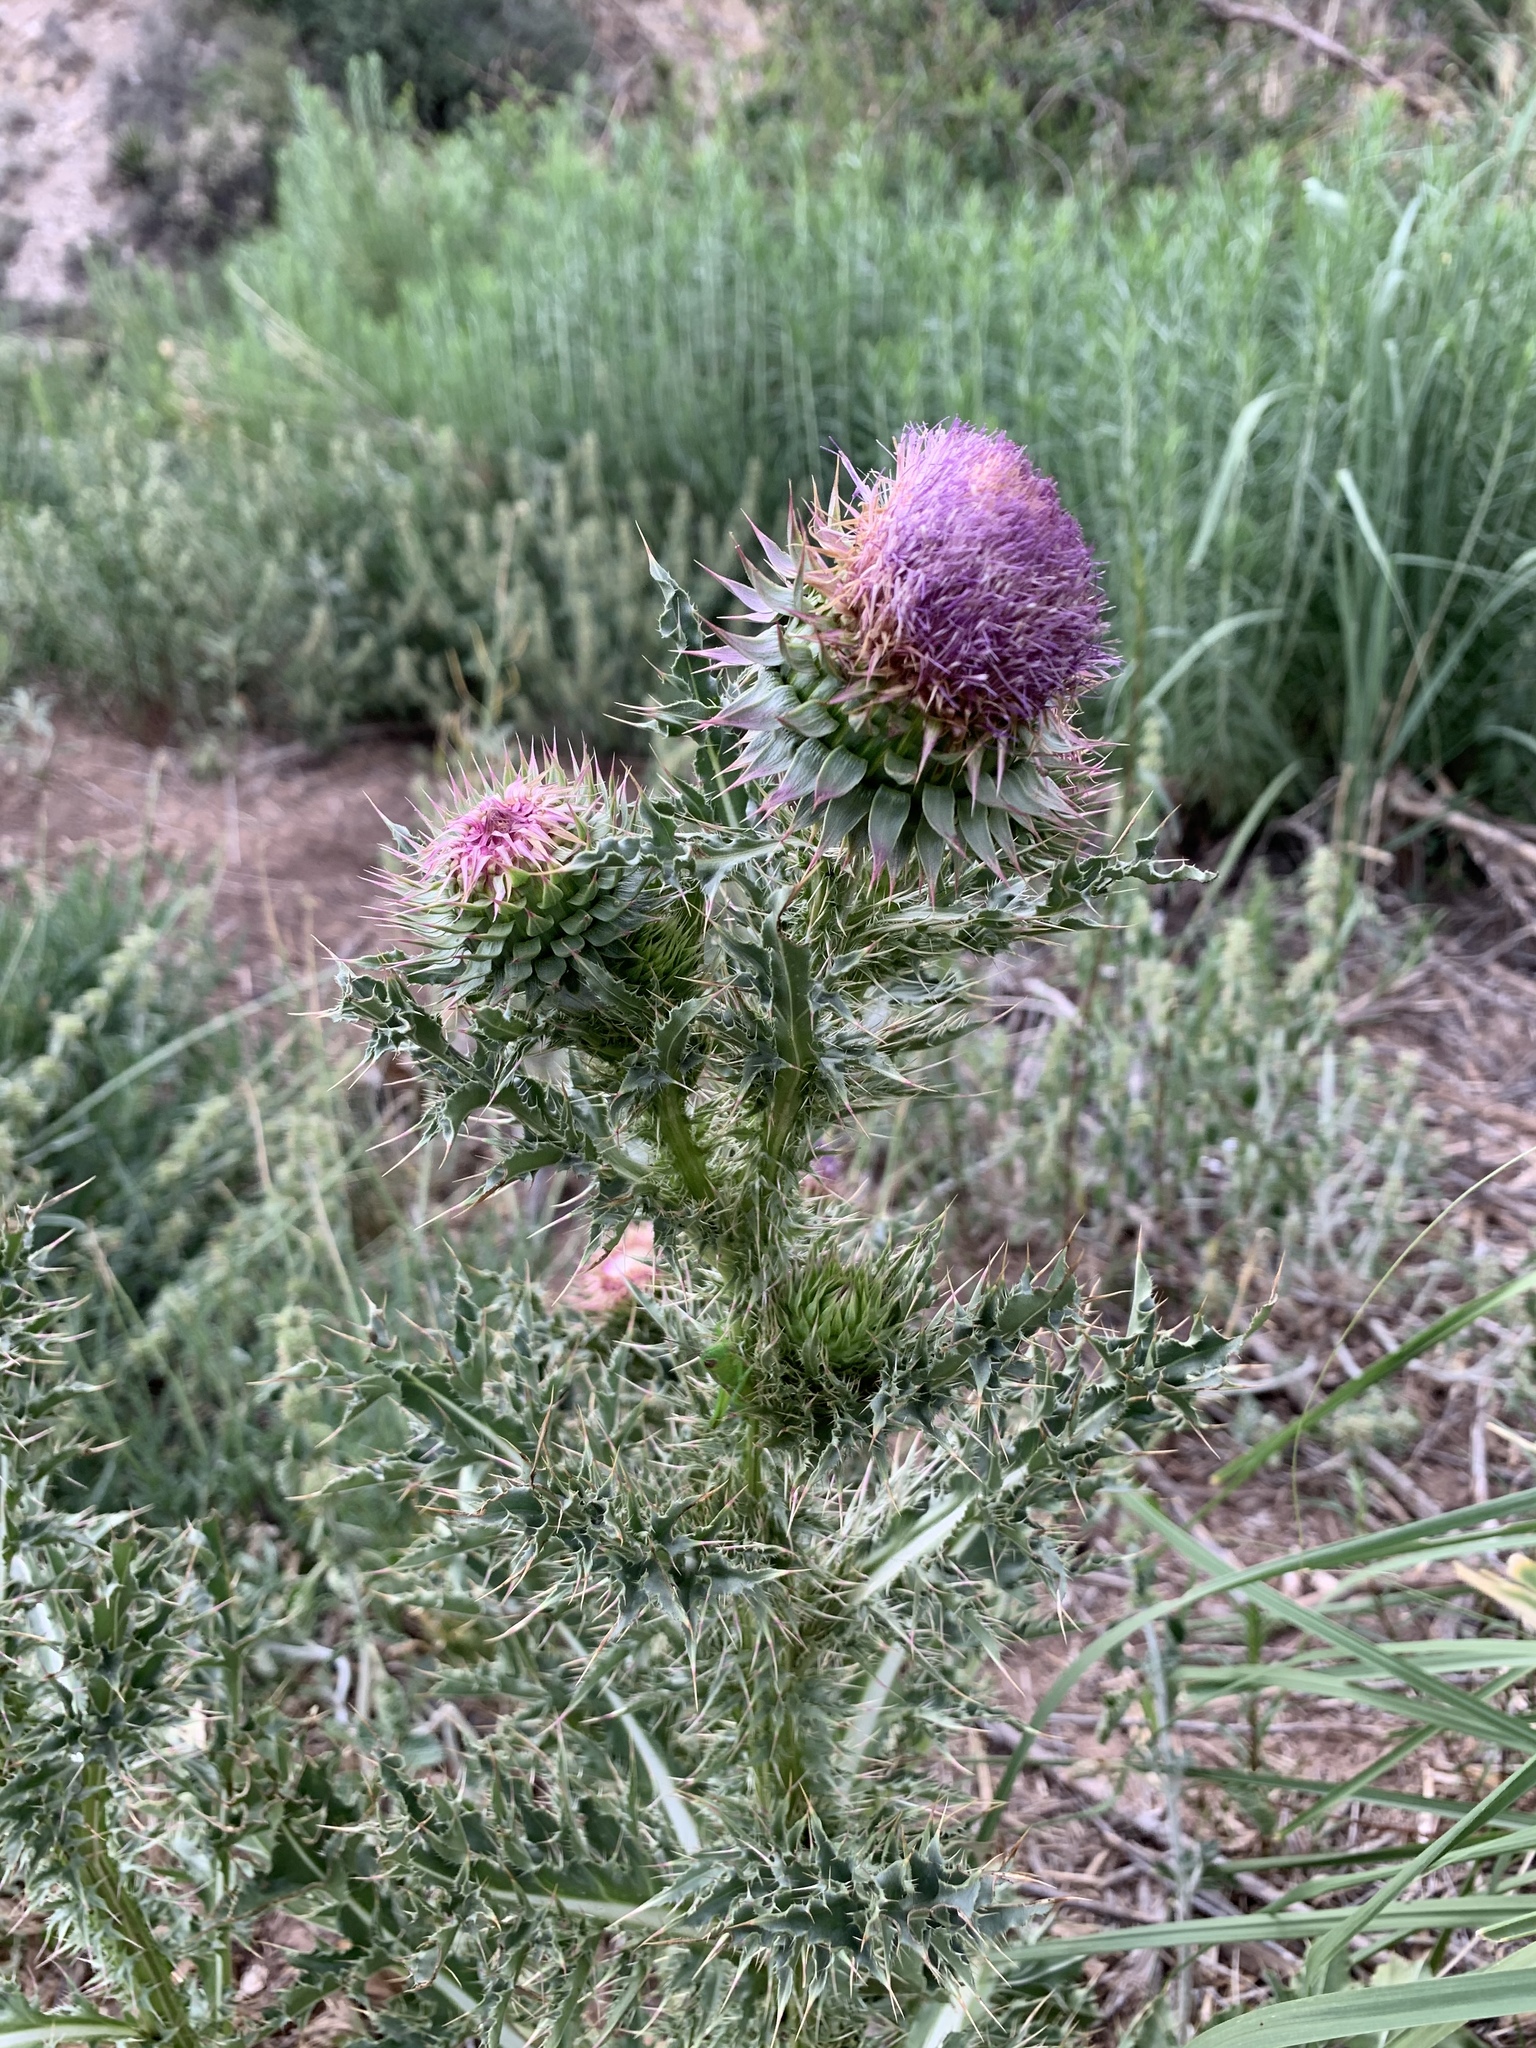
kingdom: Plantae
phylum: Tracheophyta
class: Magnoliopsida
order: Asterales
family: Asteraceae
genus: Carduus
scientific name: Carduus nutans
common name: Musk thistle
